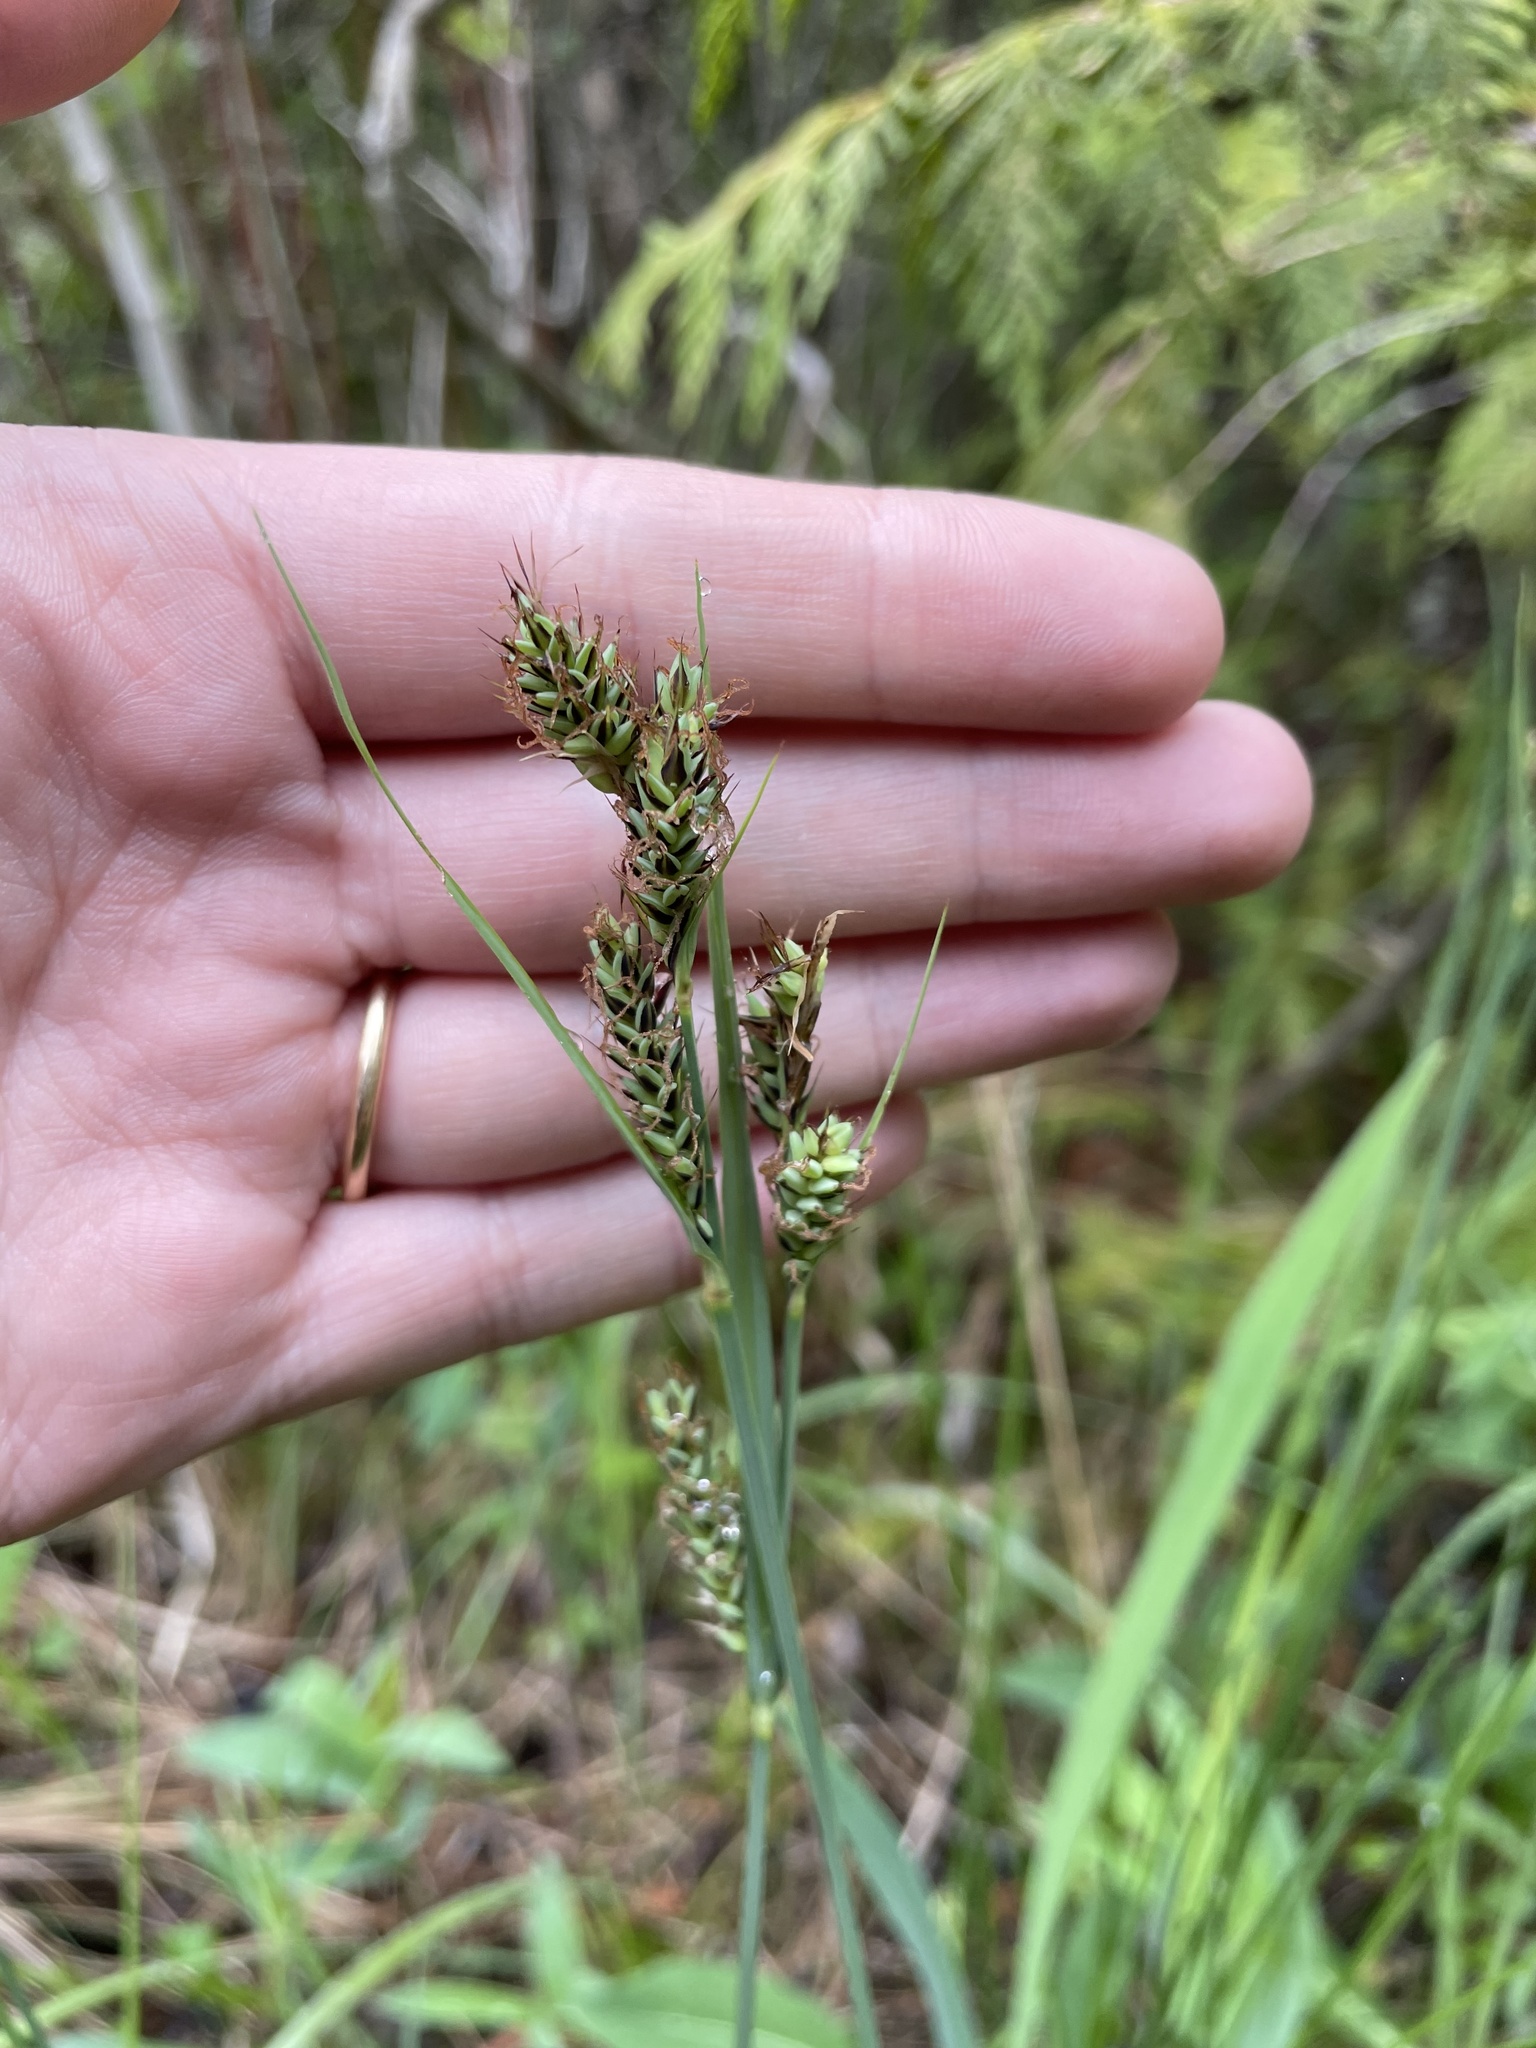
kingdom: Plantae
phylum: Tracheophyta
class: Liliopsida
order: Poales
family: Cyperaceae
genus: Carex
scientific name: Carex buxbaumii
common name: Club sedge
